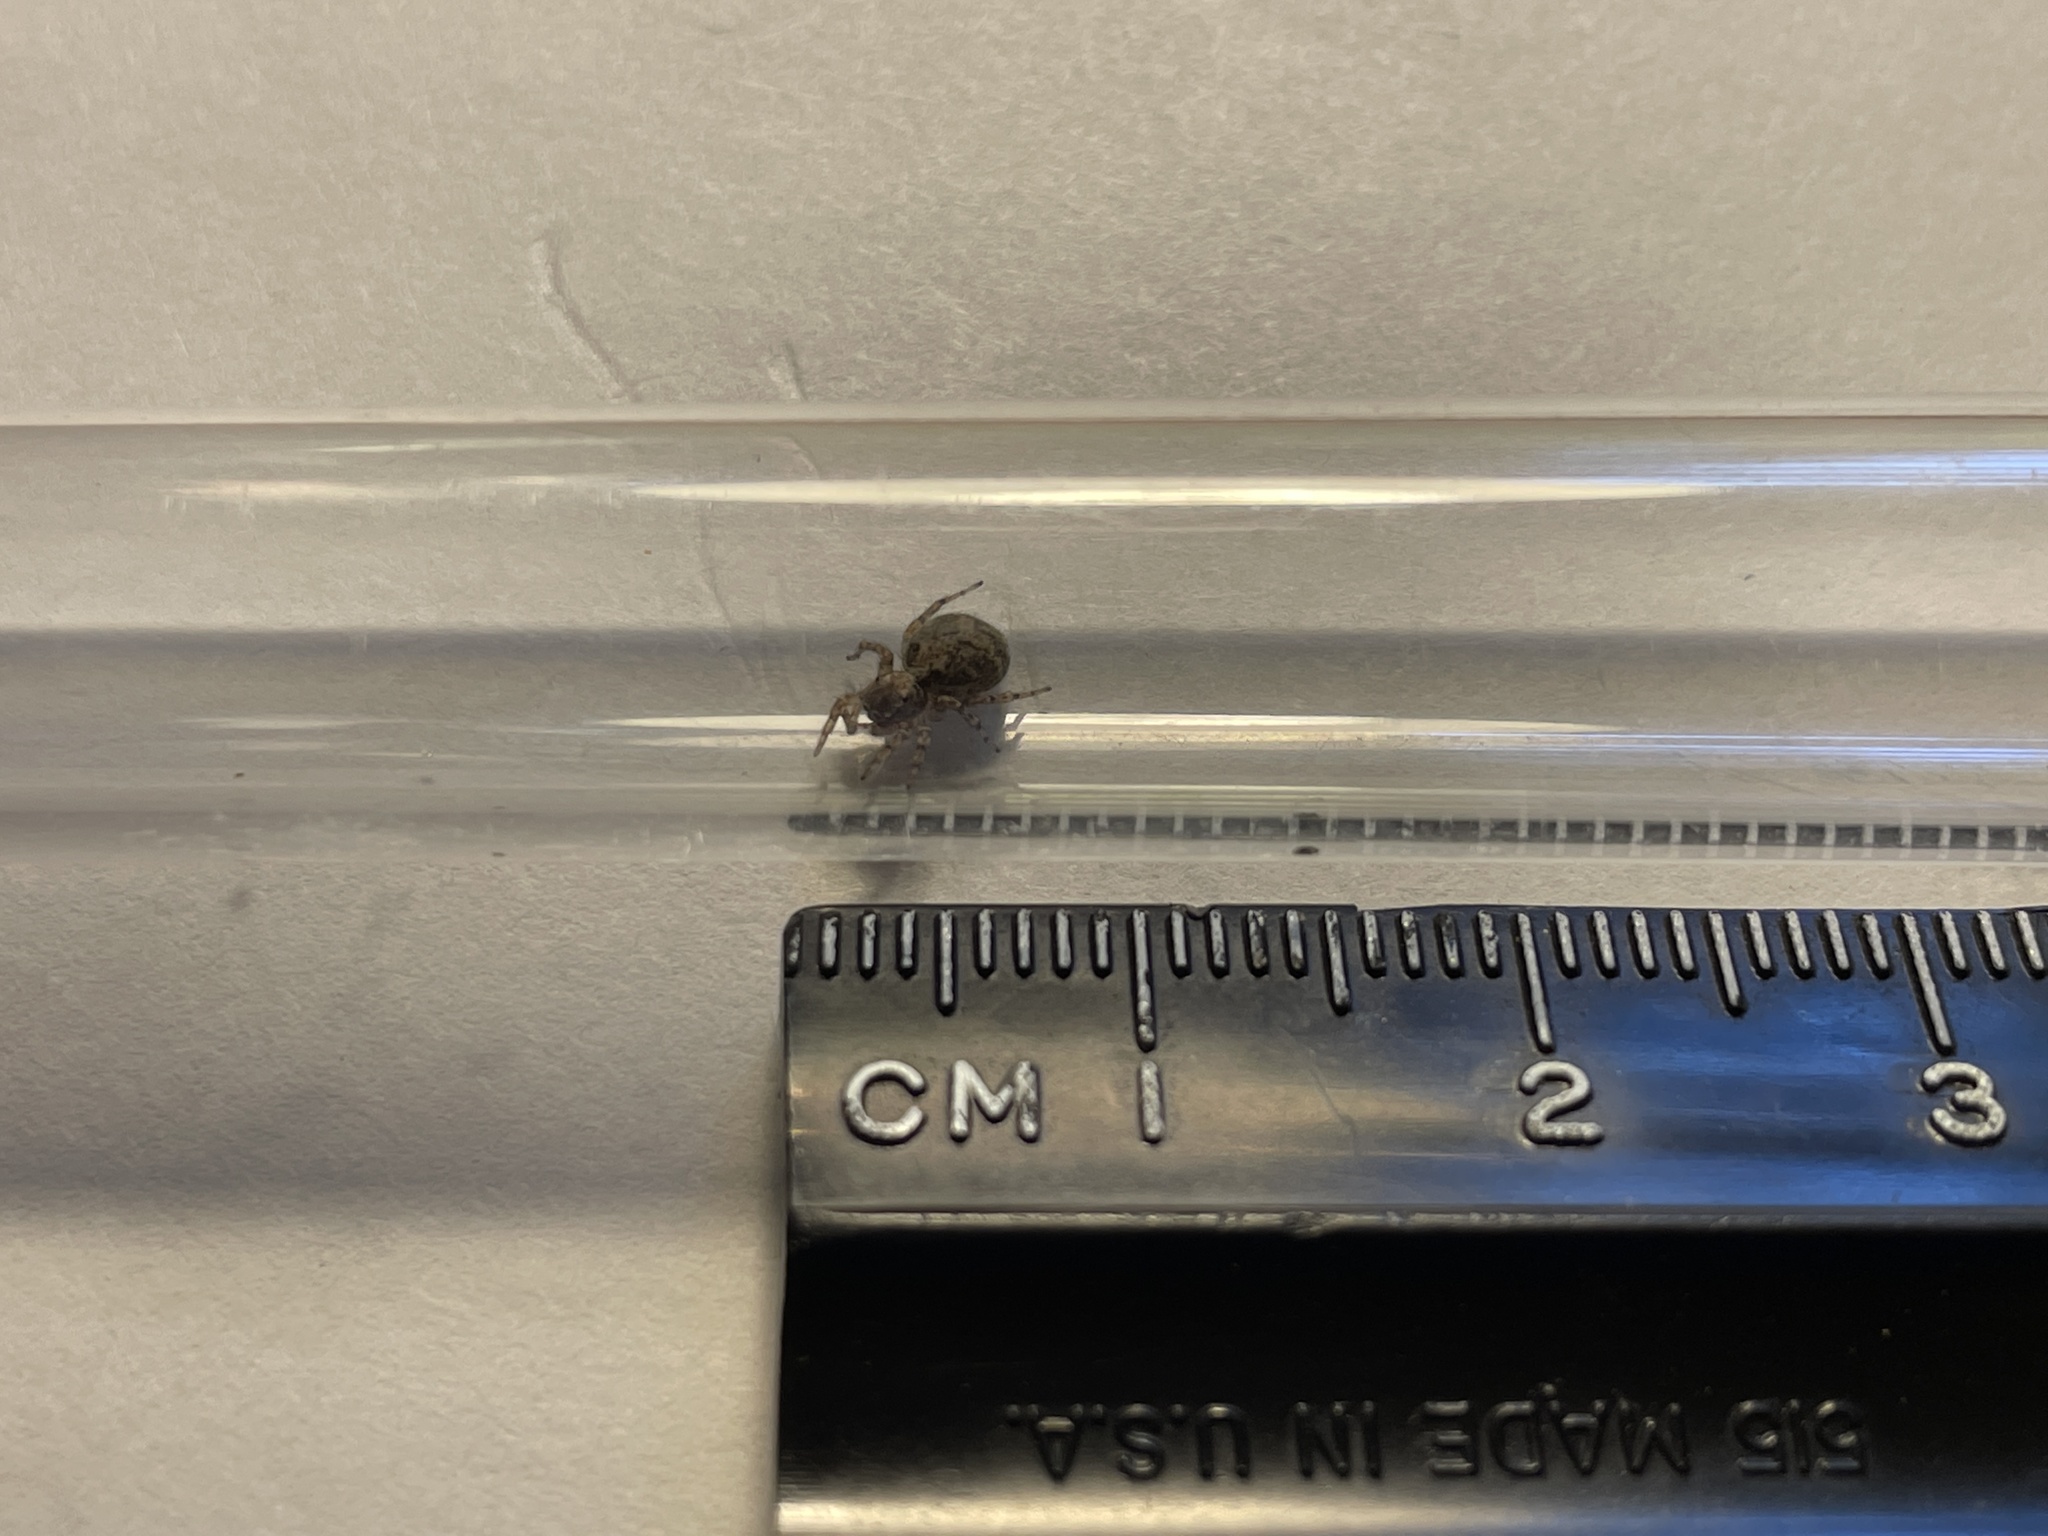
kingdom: Animalia
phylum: Arthropoda
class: Arachnida
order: Araneae
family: Salticidae
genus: Naphrys
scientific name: Naphrys pulex
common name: Flea jumping spider
